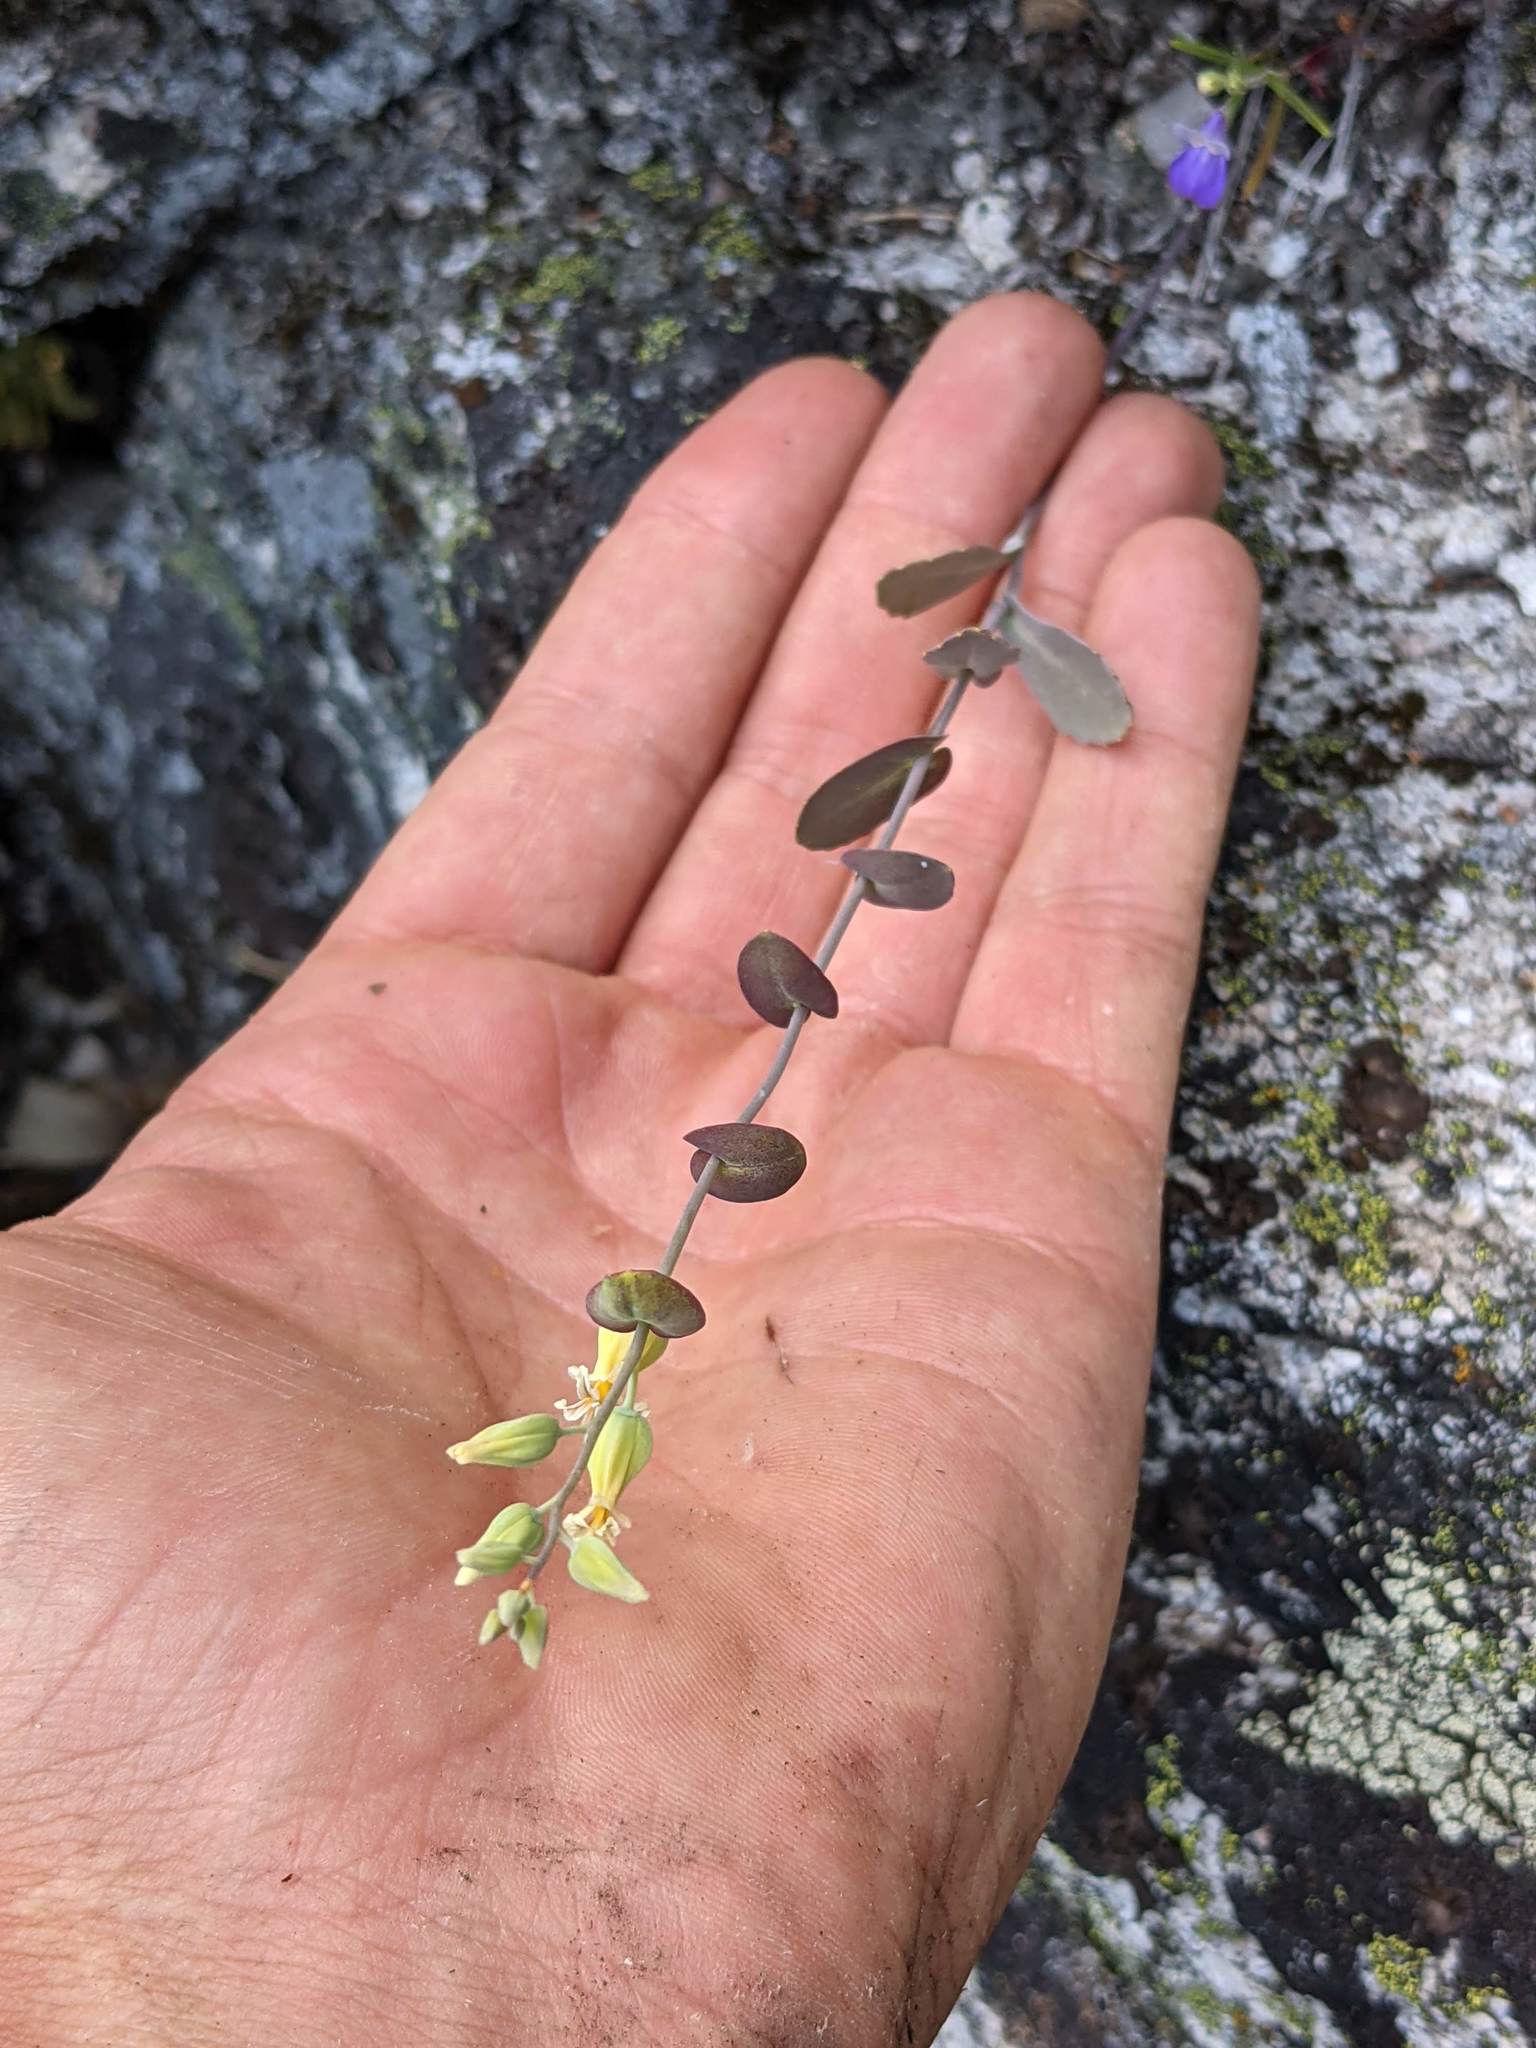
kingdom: Plantae
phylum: Tracheophyta
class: Magnoliopsida
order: Brassicales
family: Brassicaceae
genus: Streptanthus
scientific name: Streptanthus tortuosus
